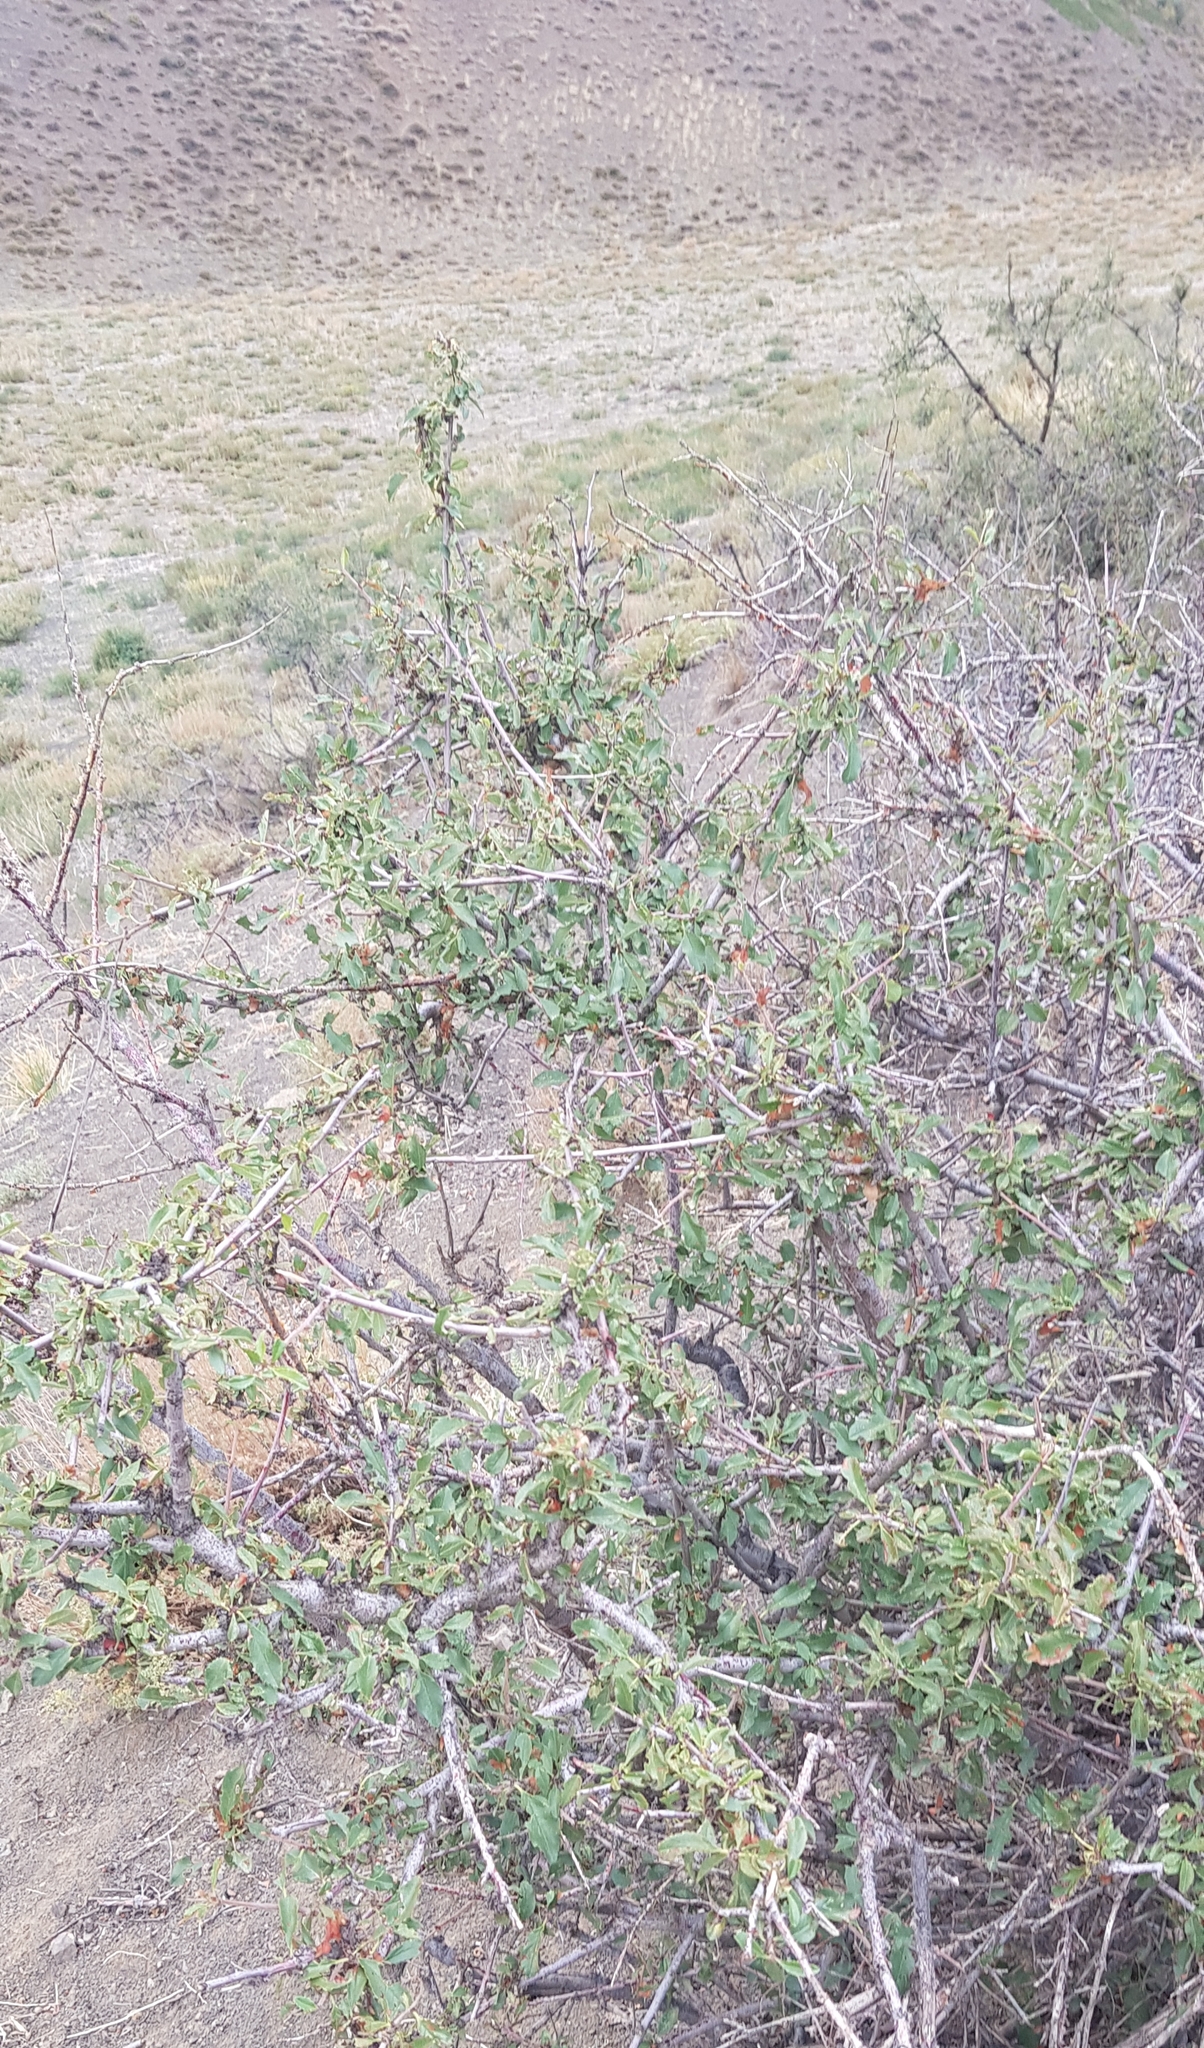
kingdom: Plantae
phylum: Tracheophyta
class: Magnoliopsida
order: Rosales
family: Rosaceae
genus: Prunus
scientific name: Prunus pedunculata
